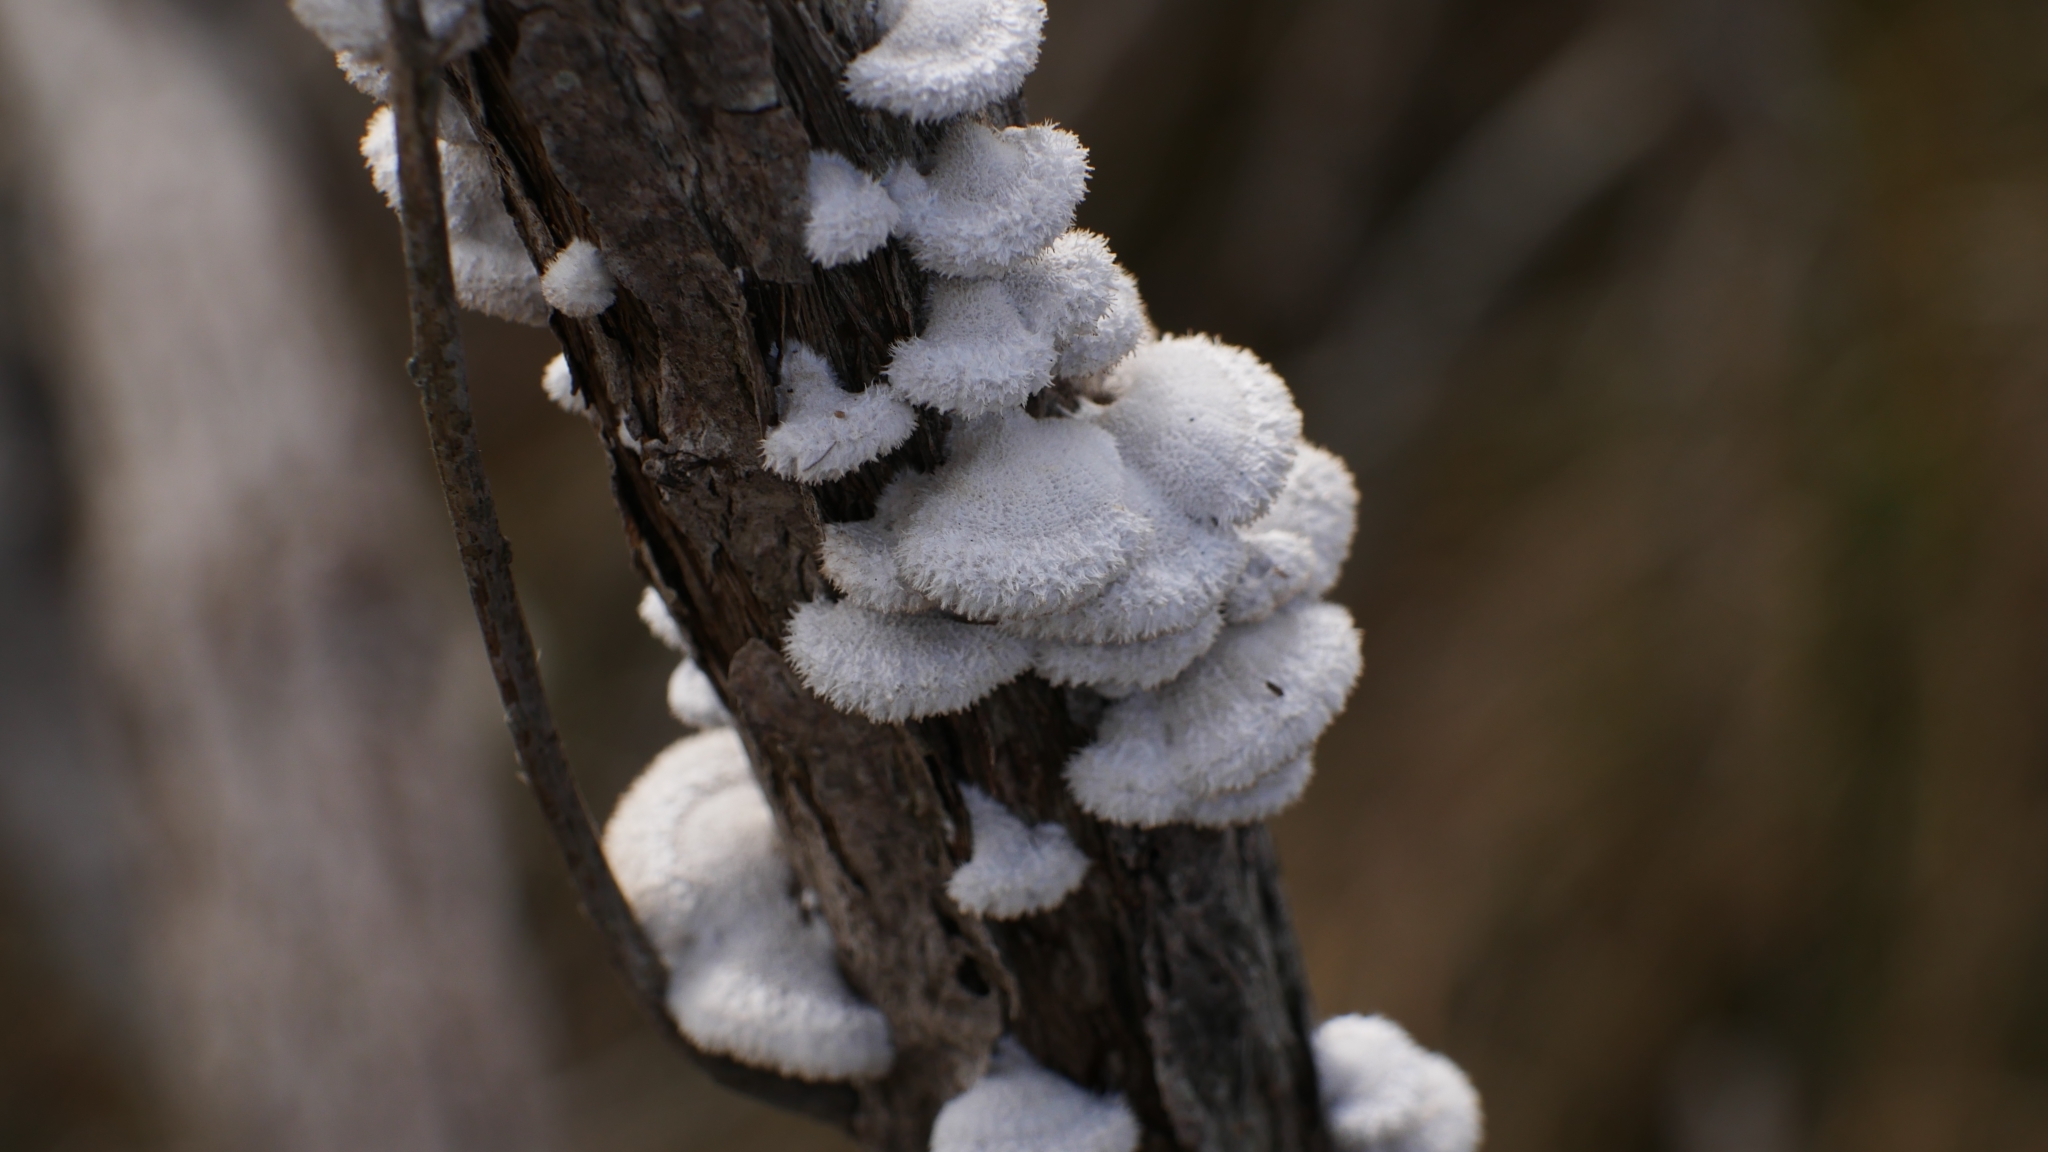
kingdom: Fungi
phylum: Basidiomycota
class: Agaricomycetes
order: Agaricales
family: Schizophyllaceae
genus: Schizophyllum
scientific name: Schizophyllum commune
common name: Common porecrust
